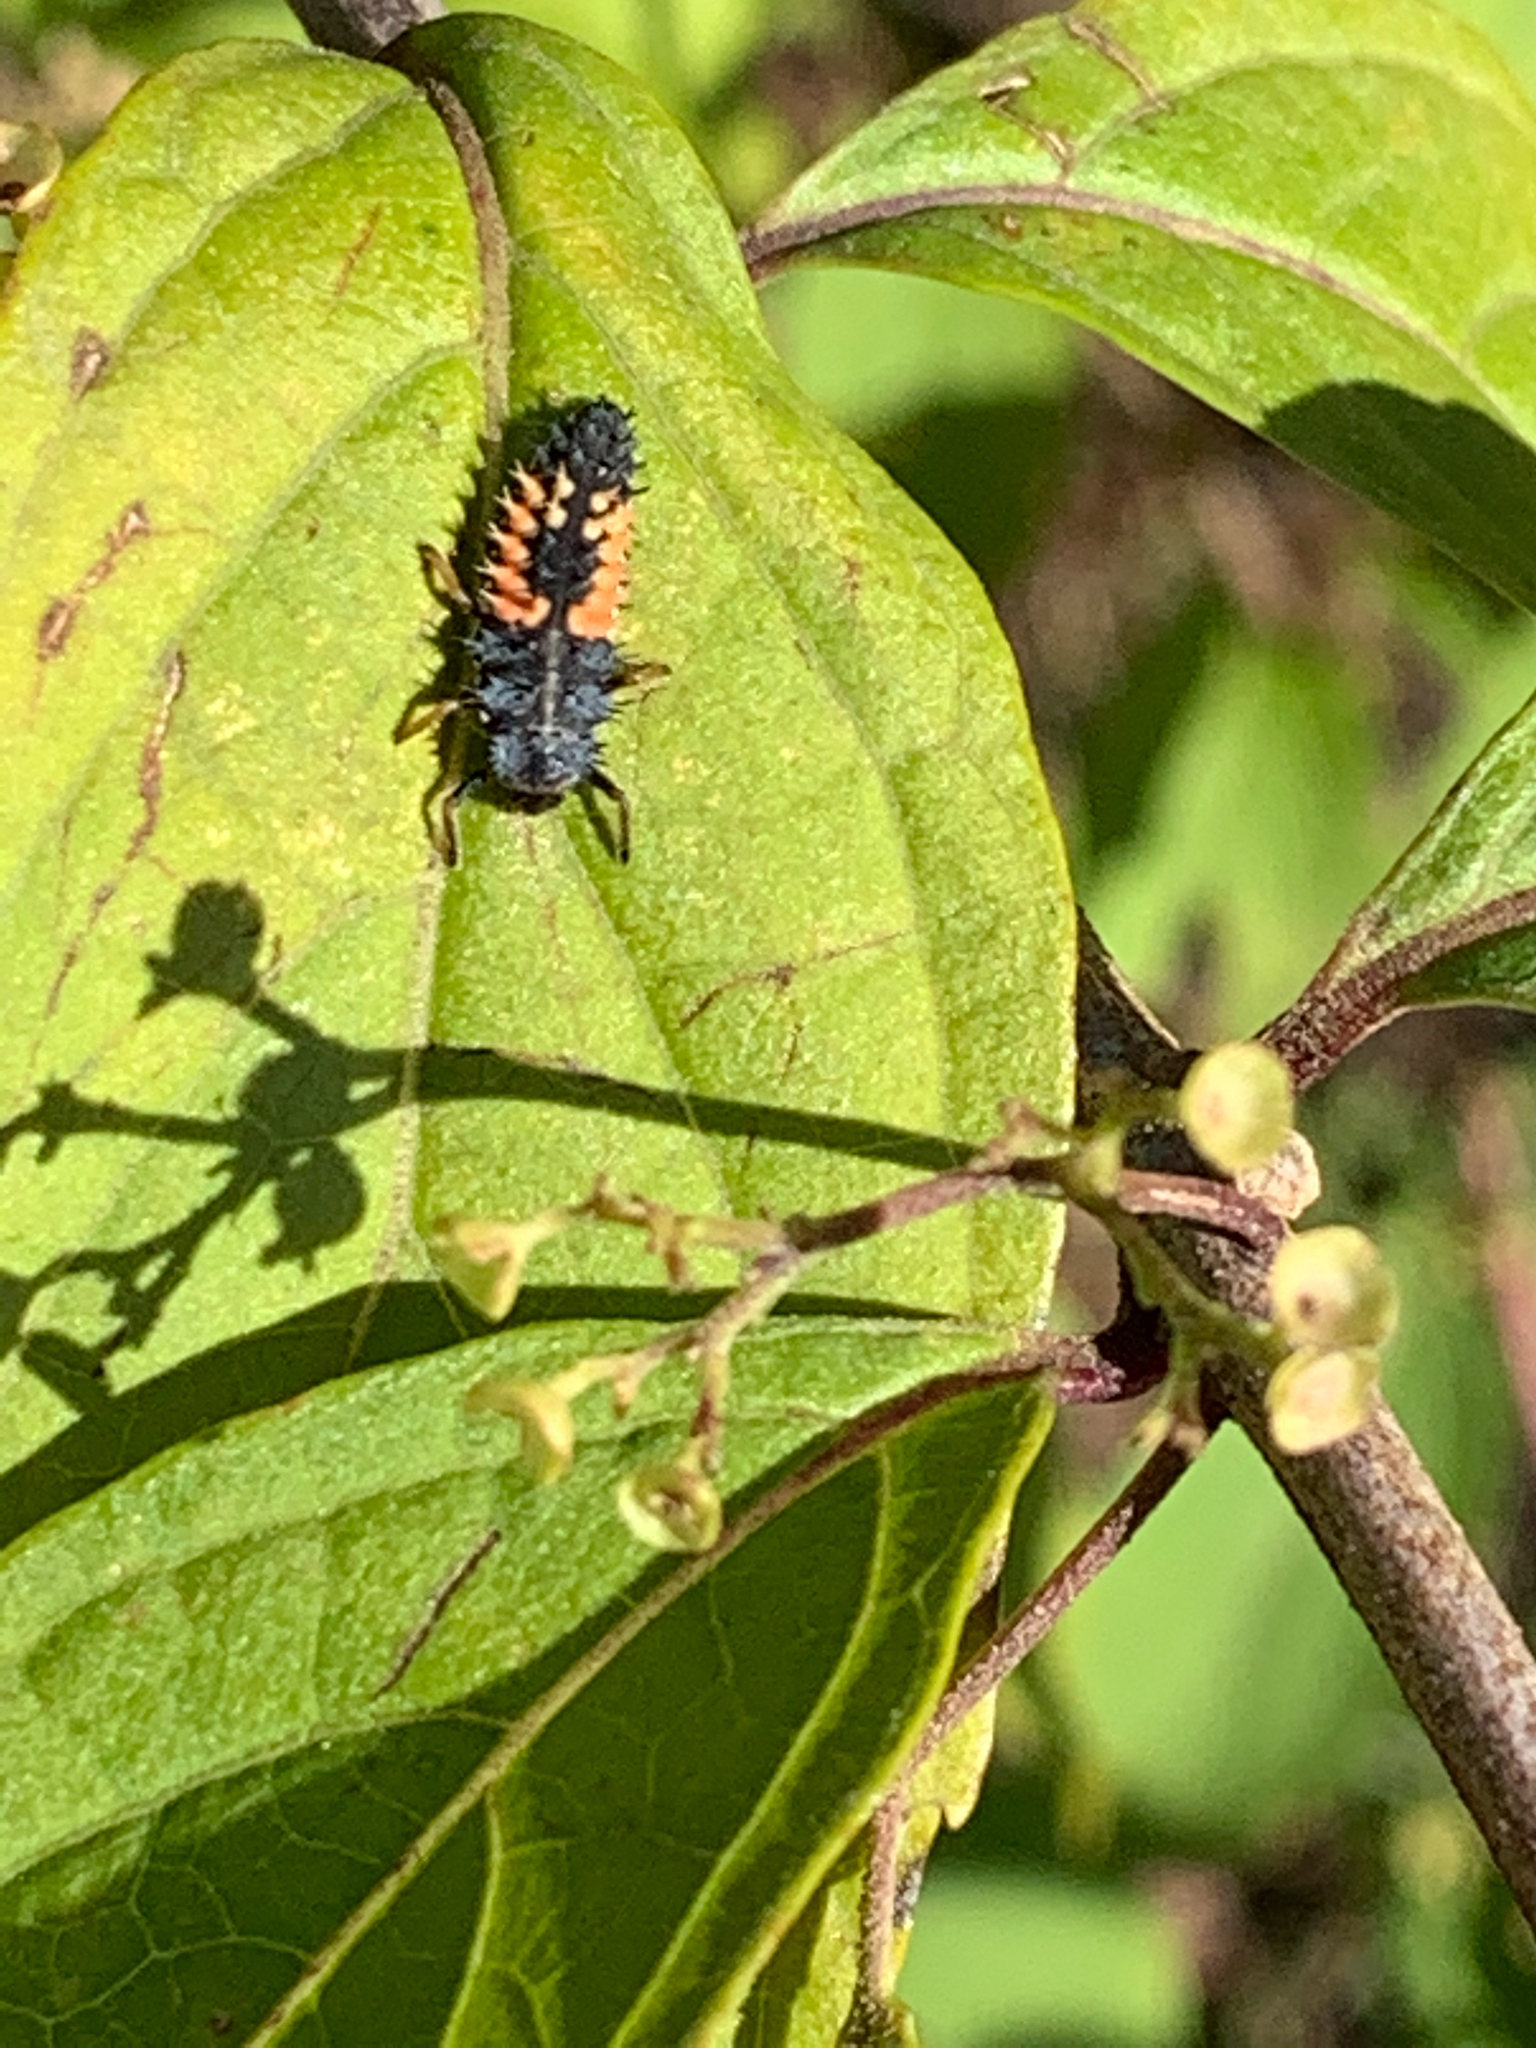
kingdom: Animalia
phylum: Arthropoda
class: Insecta
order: Coleoptera
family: Coccinellidae
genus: Harmonia
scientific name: Harmonia axyridis
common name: Harlequin ladybird
